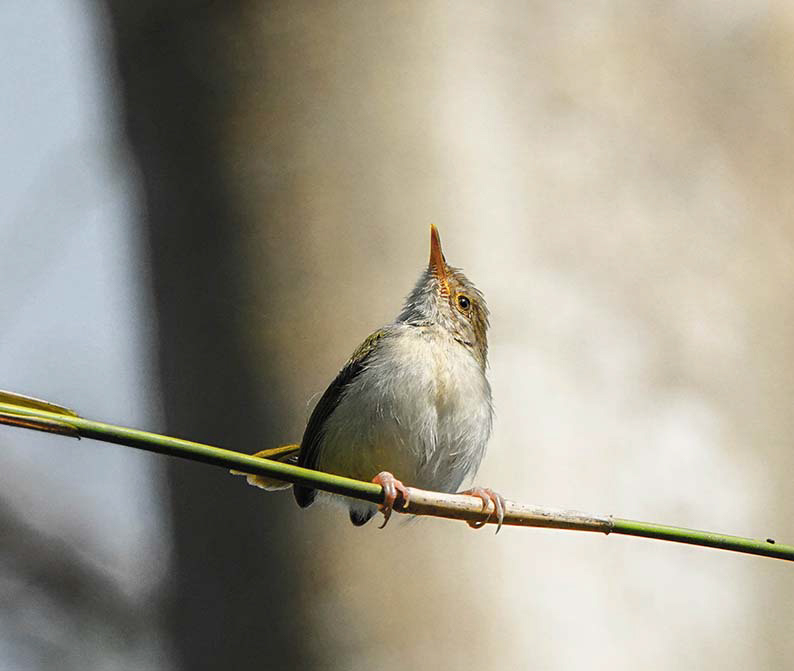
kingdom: Animalia
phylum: Chordata
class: Aves
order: Passeriformes
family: Cisticolidae
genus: Orthotomus
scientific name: Orthotomus sutorius
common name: Common tailorbird
